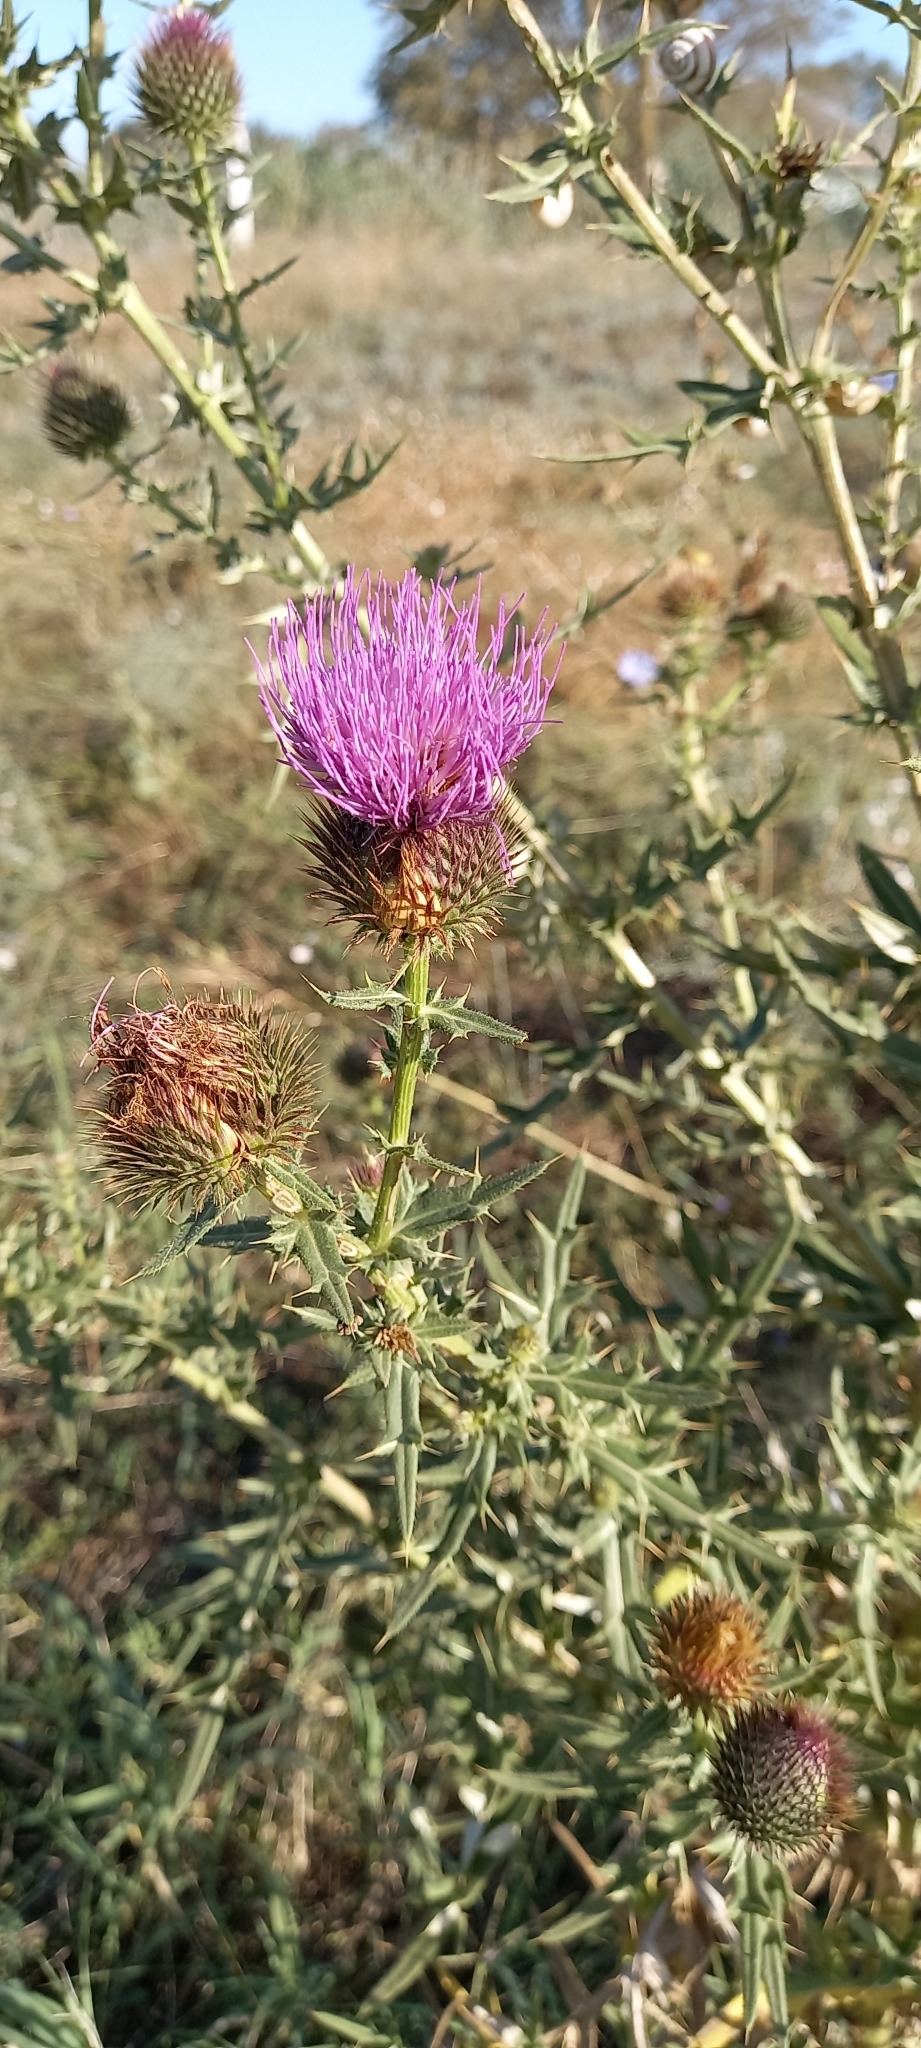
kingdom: Plantae
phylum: Tracheophyta
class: Magnoliopsida
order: Asterales
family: Asteraceae
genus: Lophiolepis
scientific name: Lophiolepis ciliata
